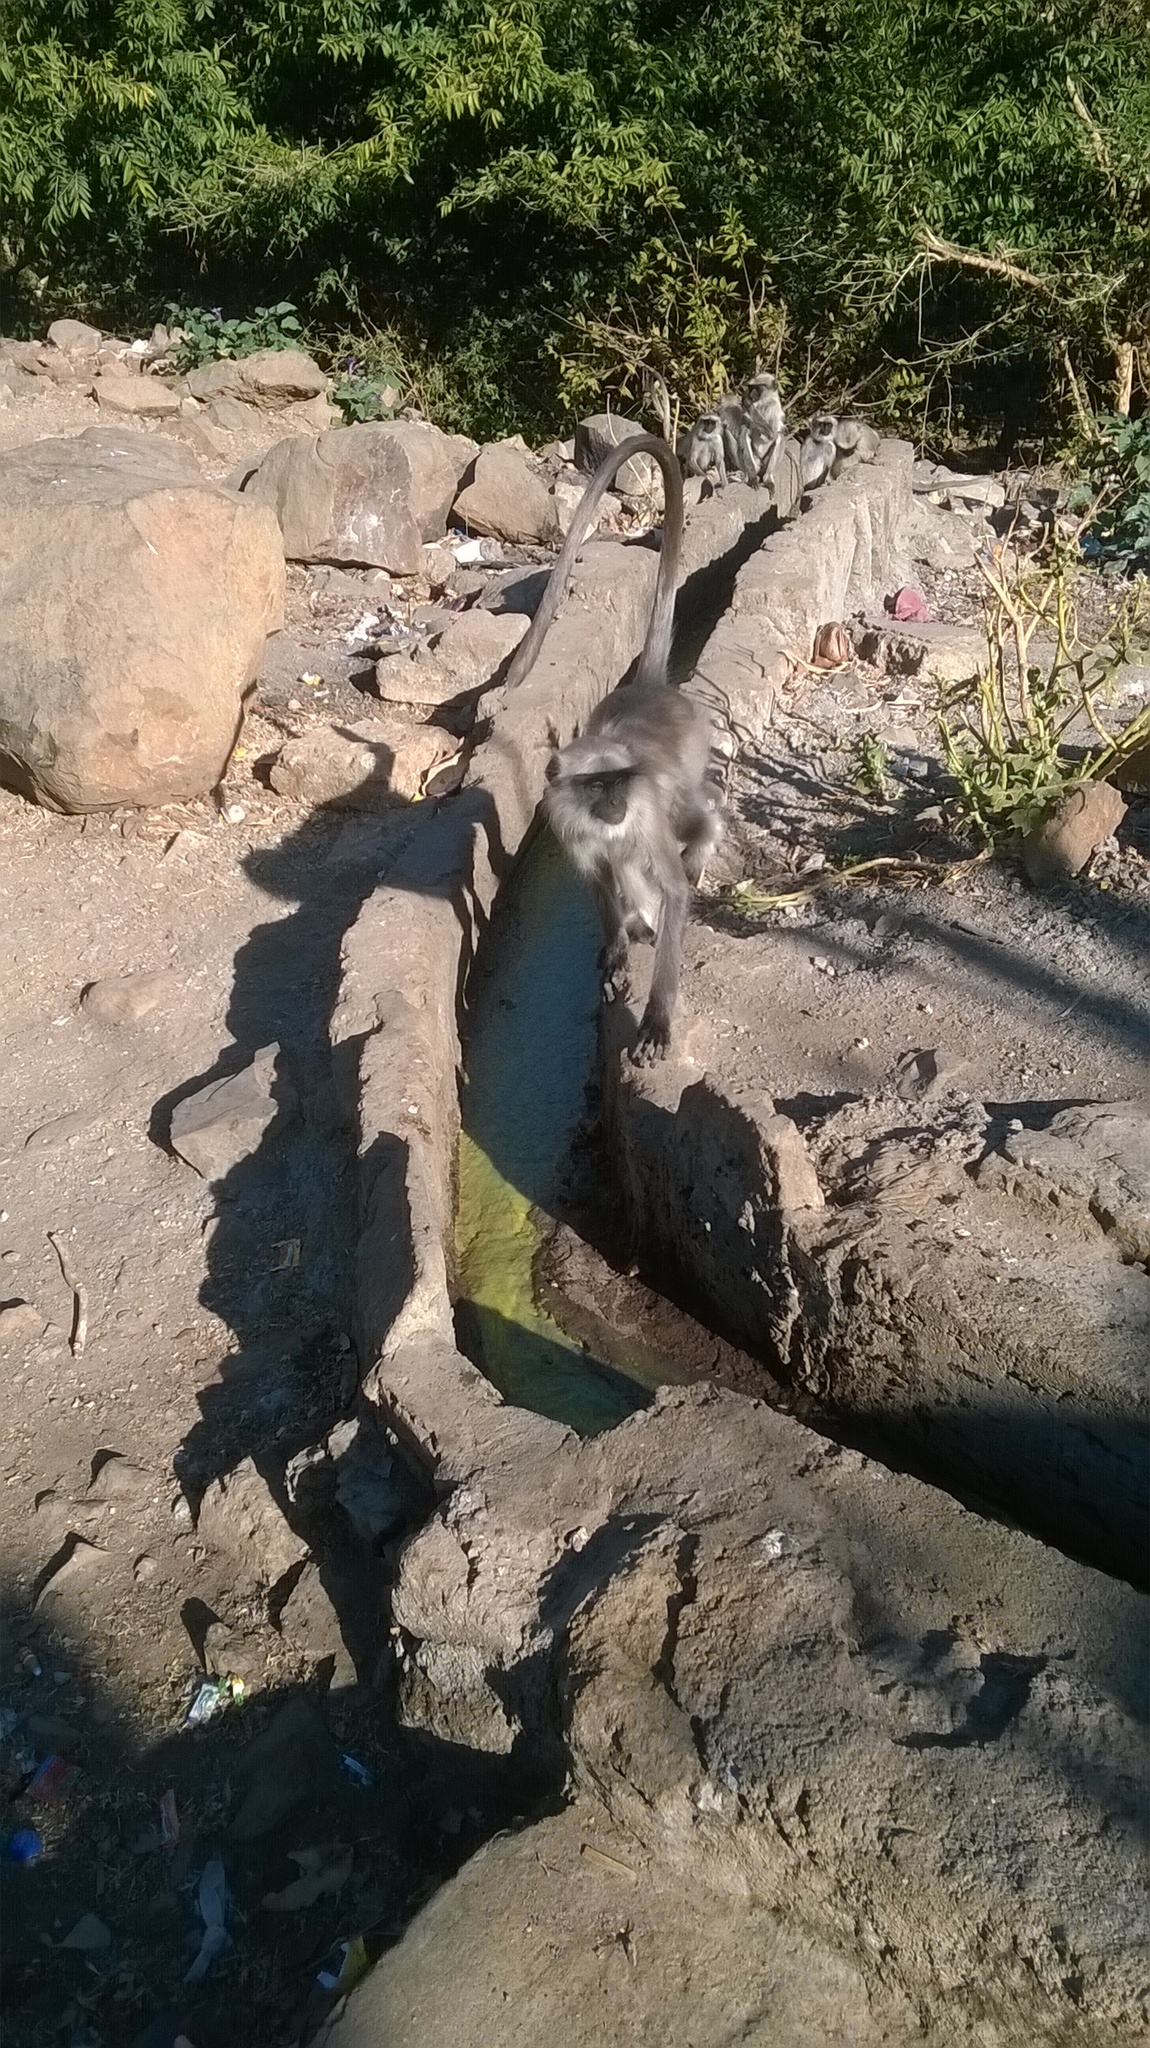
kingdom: Animalia
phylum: Chordata
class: Mammalia
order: Primates
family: Cercopithecidae
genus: Semnopithecus
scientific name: Semnopithecus entellus
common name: Northern plains gray langur
